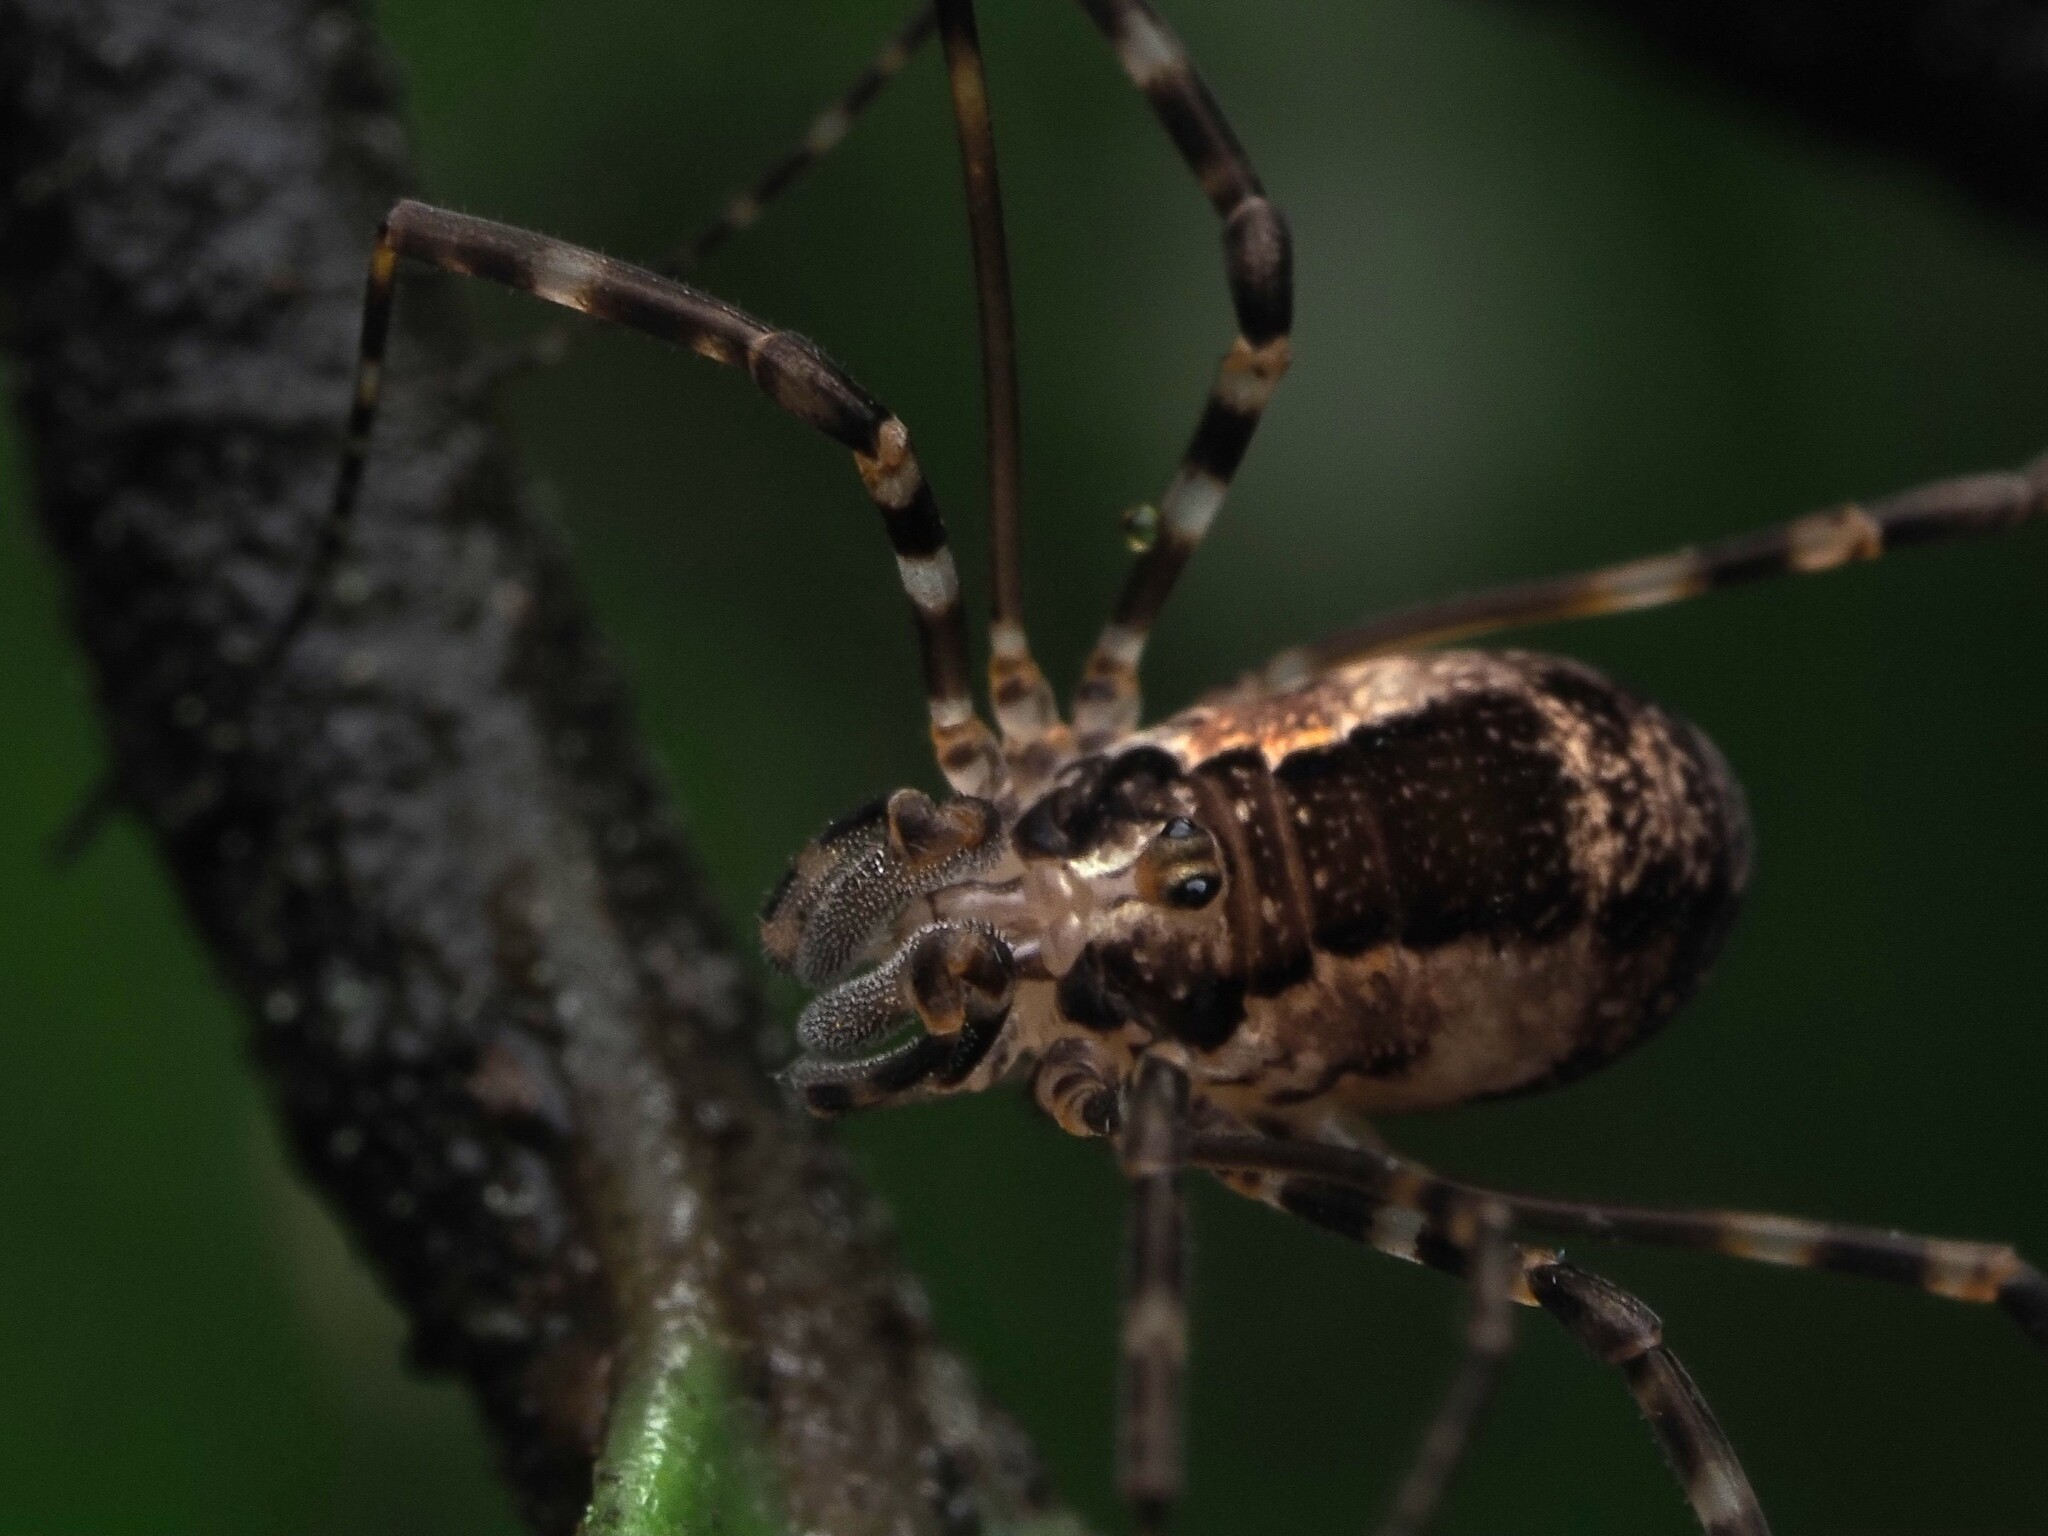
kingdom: Animalia
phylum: Arthropoda
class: Arachnida
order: Opiliones
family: Neopilionidae
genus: Megalopsalis
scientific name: Megalopsalis triascuta
